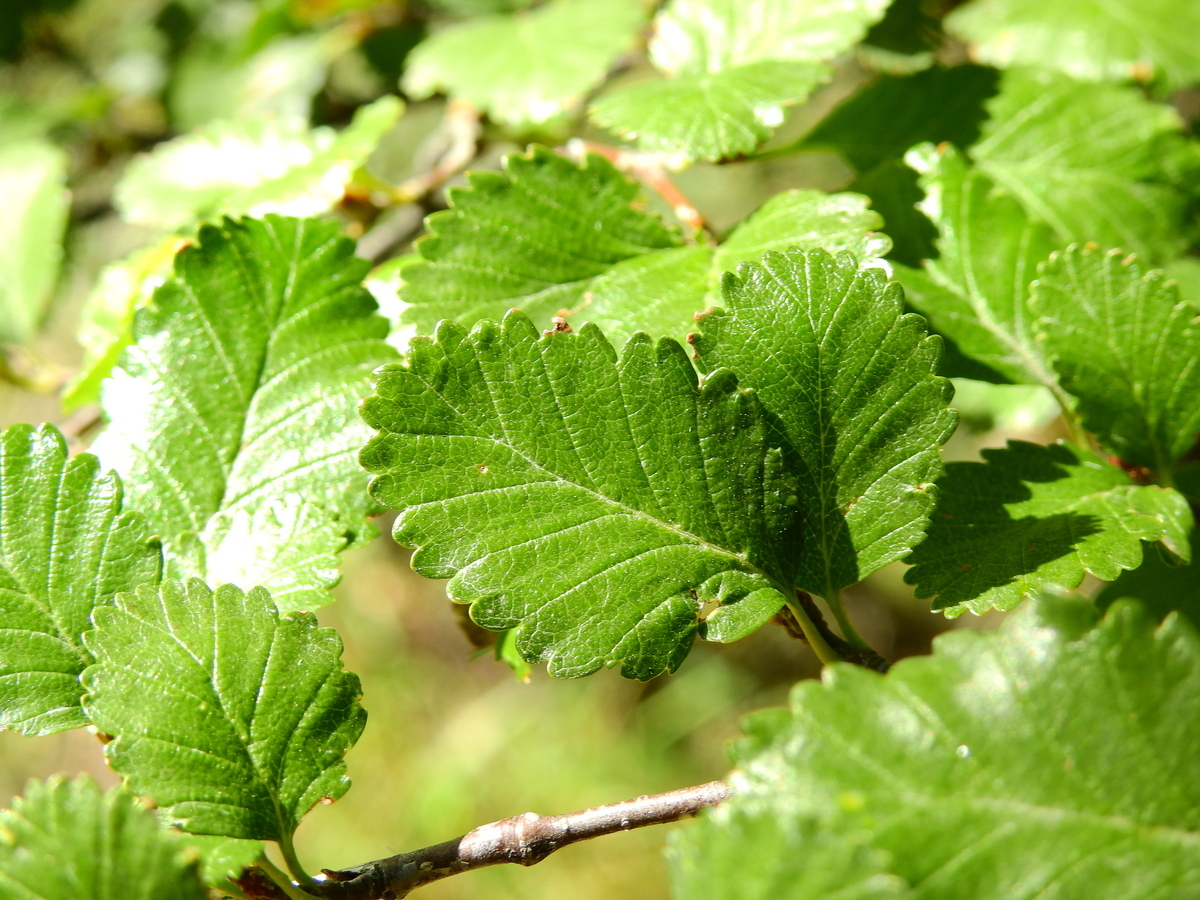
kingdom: Plantae
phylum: Tracheophyta
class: Magnoliopsida
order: Fagales
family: Nothofagaceae
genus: Nothofagus
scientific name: Nothofagus pumilio
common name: Lenga beech
